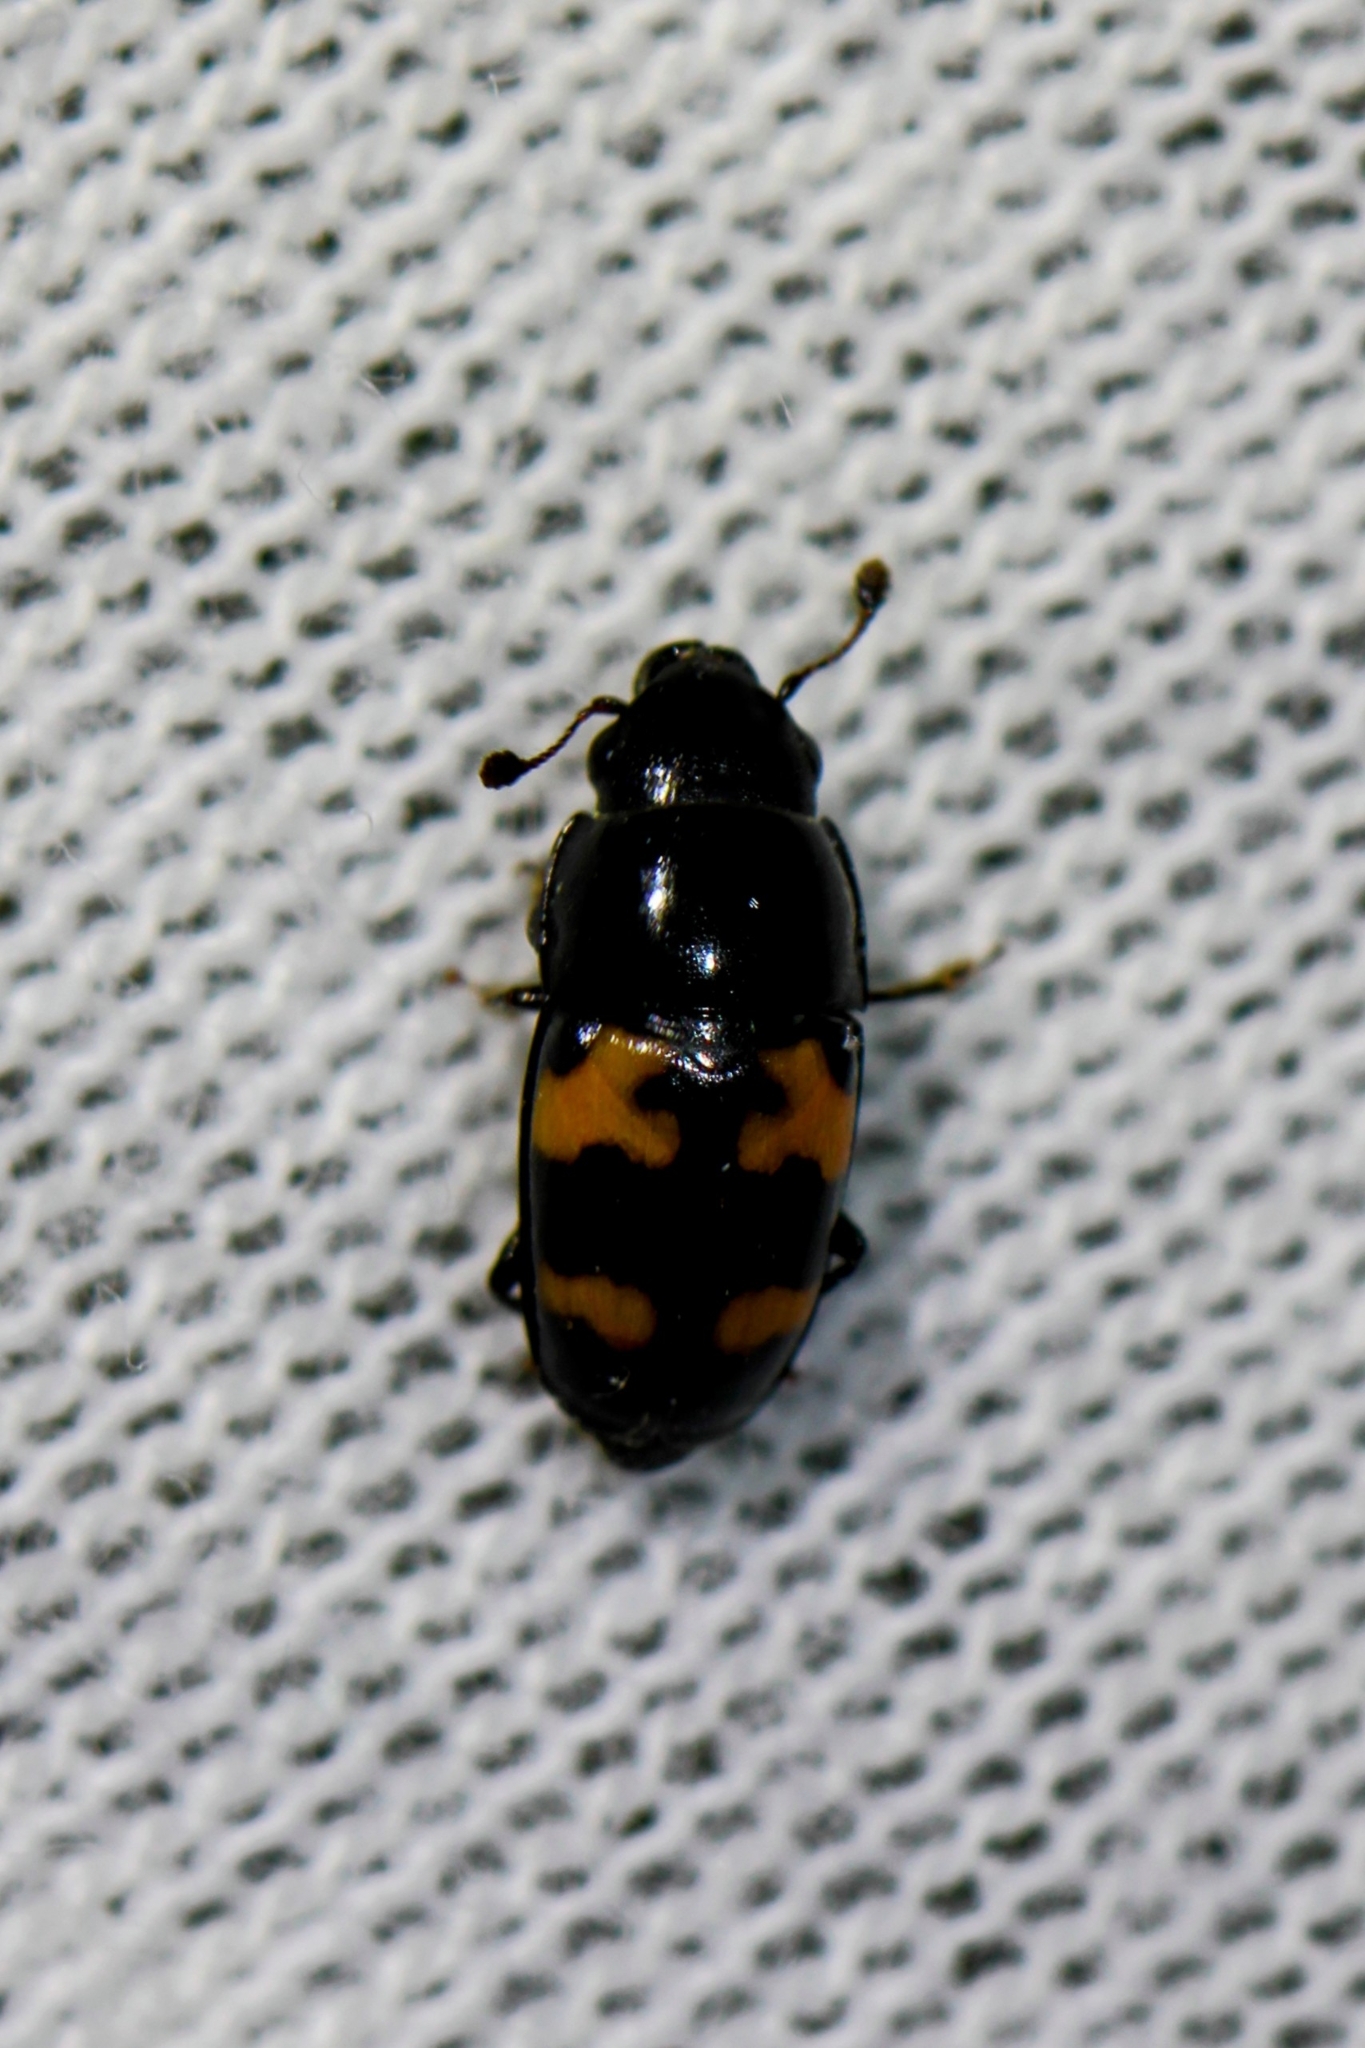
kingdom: Animalia
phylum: Arthropoda
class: Insecta
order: Coleoptera
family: Nitidulidae
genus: Glischrochilus
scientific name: Glischrochilus fasciatus
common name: Picnic beetle
